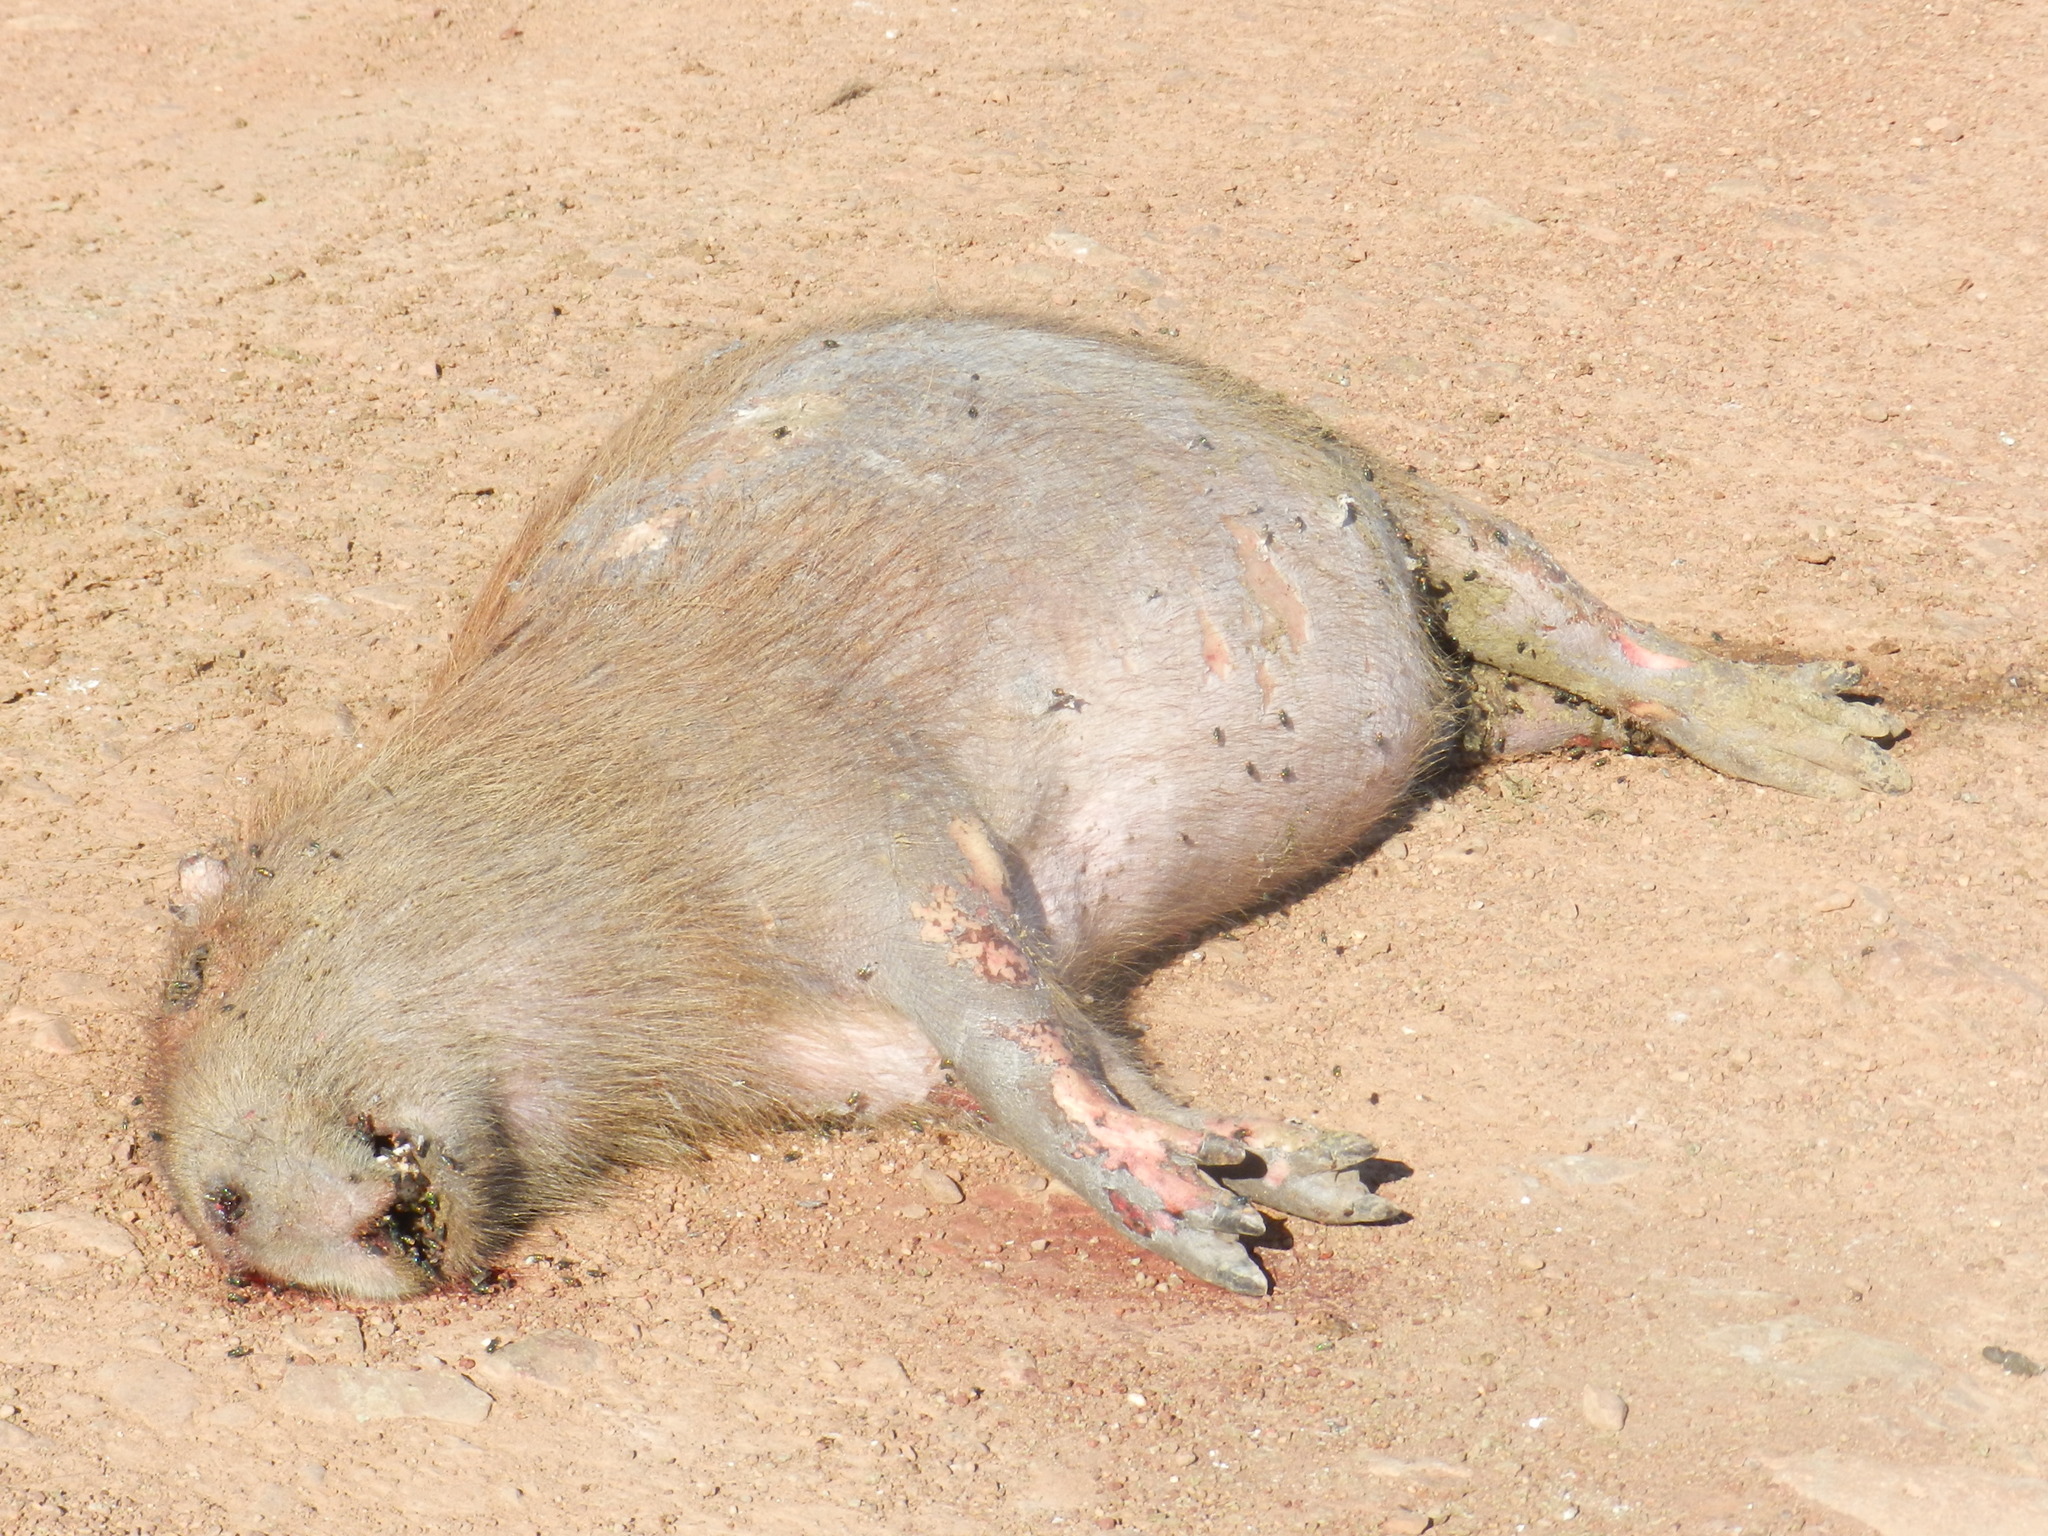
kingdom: Animalia
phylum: Chordata
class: Mammalia
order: Rodentia
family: Caviidae
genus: Hydrochoerus
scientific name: Hydrochoerus hydrochaeris
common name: Capybara
